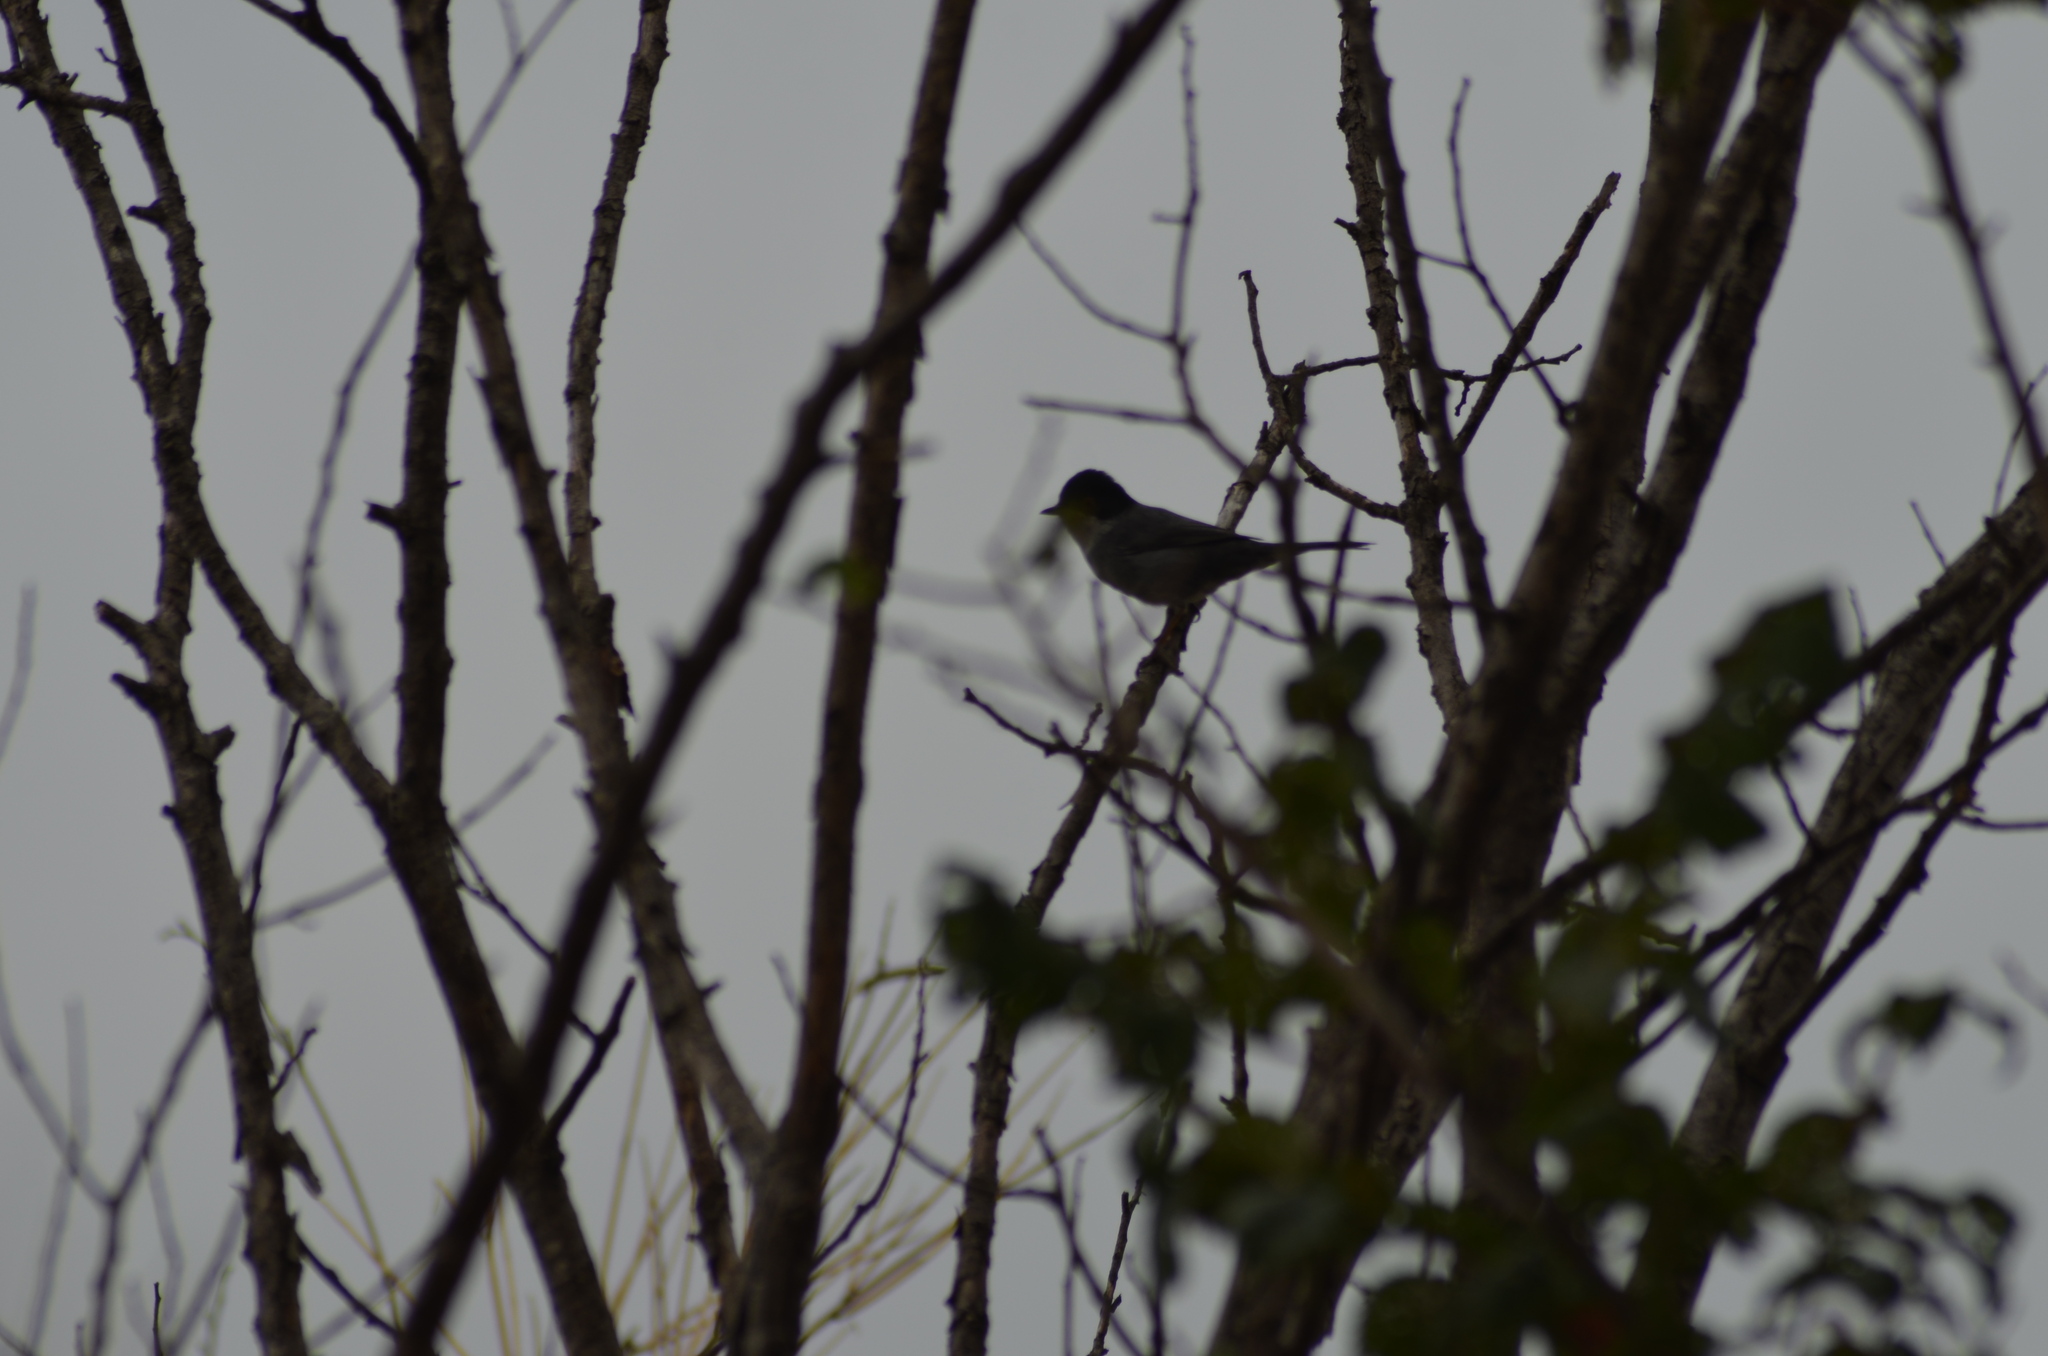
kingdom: Animalia
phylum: Chordata
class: Aves
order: Passeriformes
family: Sylviidae
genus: Curruca
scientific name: Curruca melanocephala
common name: Sardinian warbler
